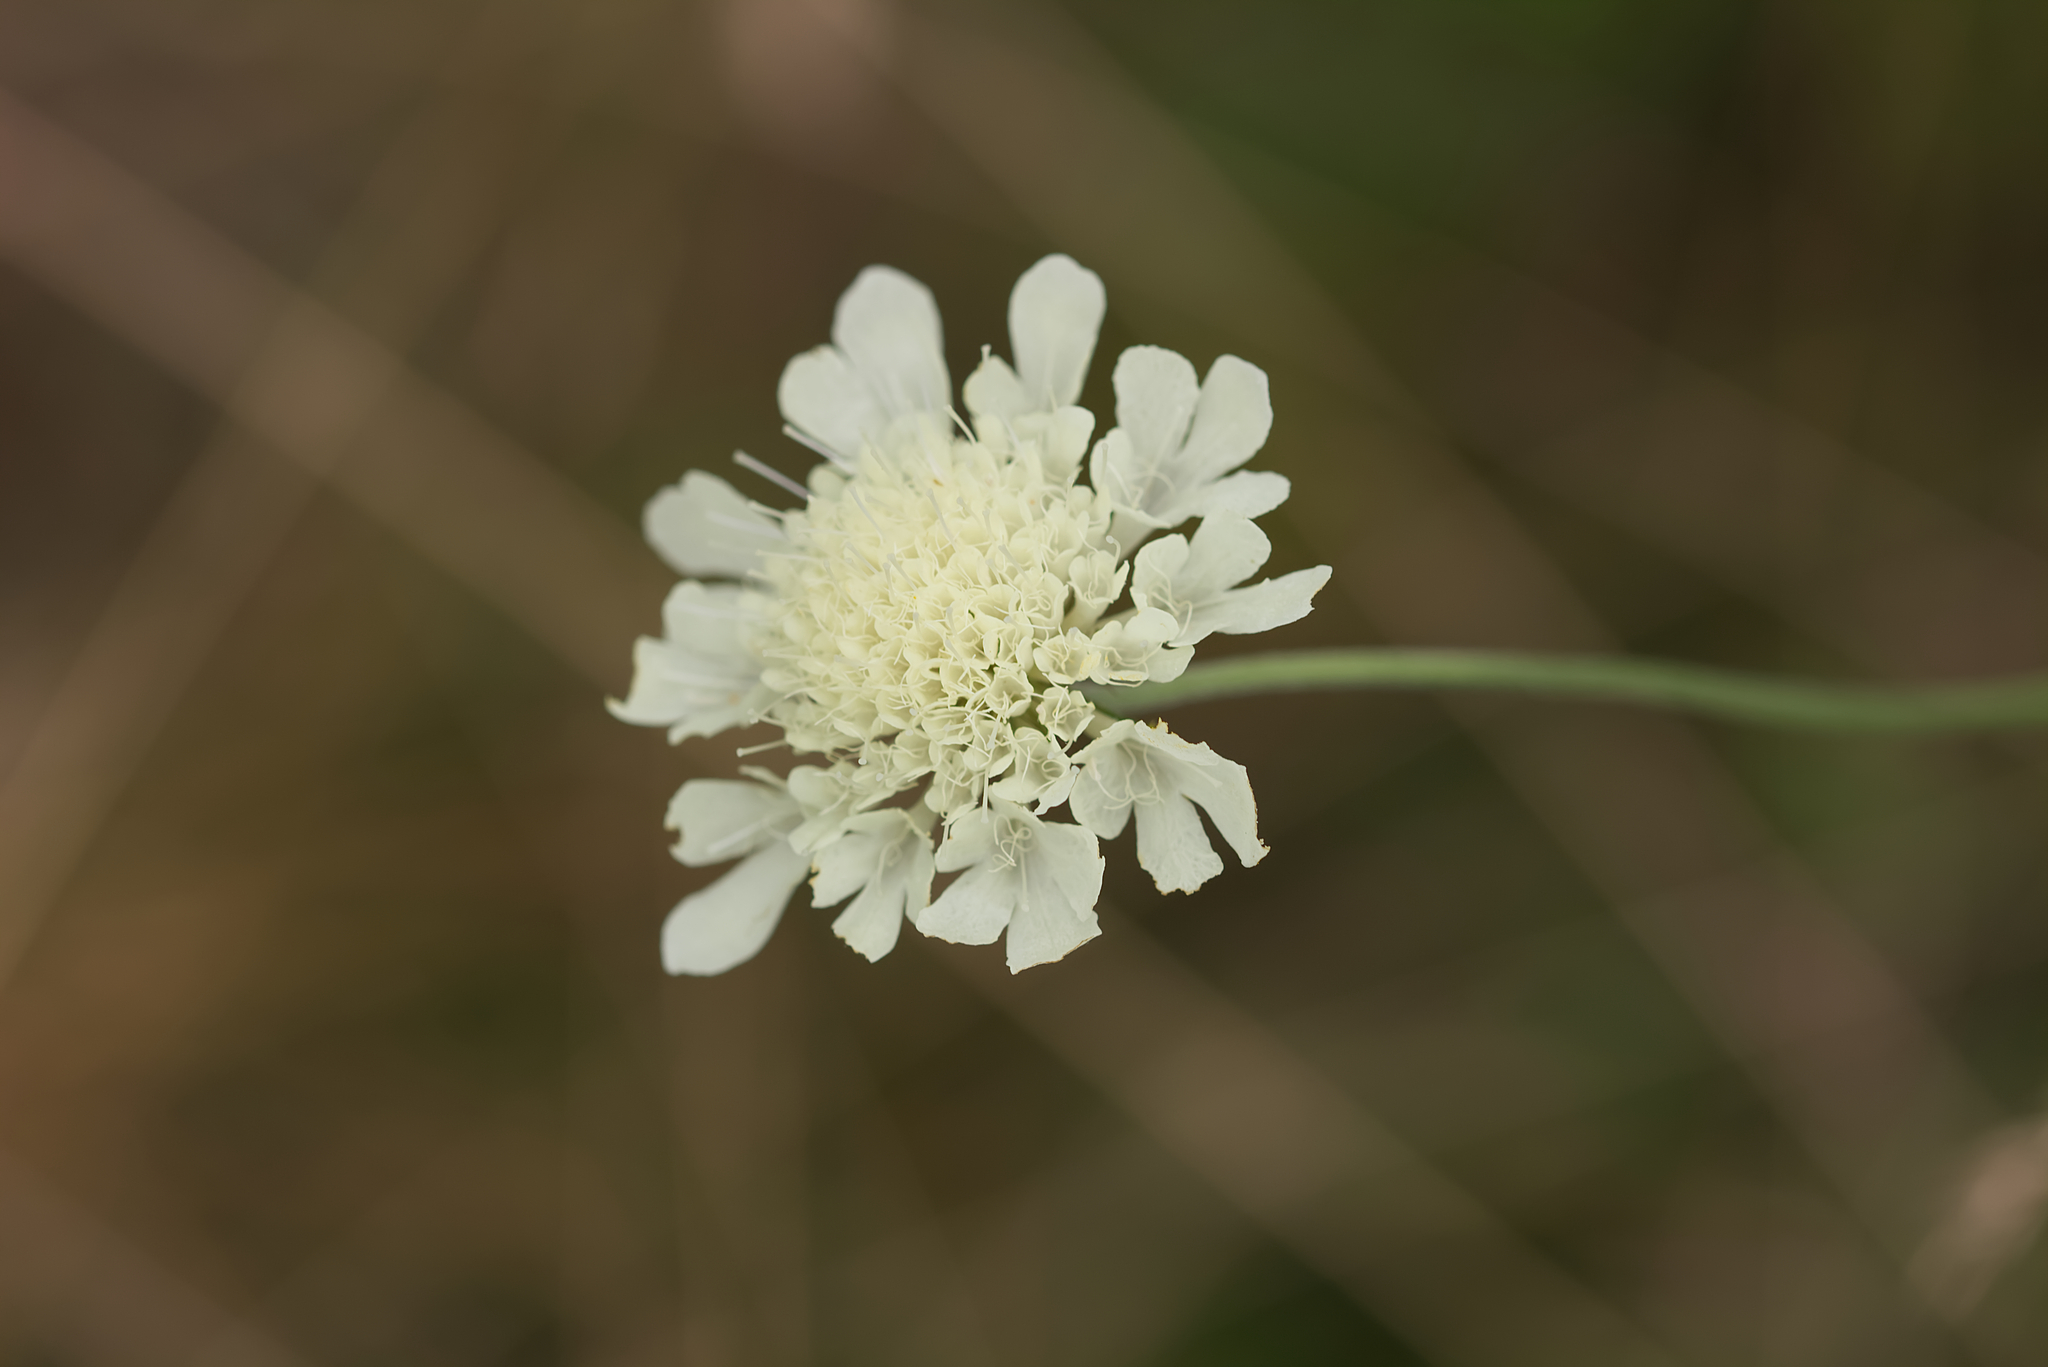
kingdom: Plantae
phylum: Tracheophyta
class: Magnoliopsida
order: Dipsacales
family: Caprifoliaceae
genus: Scabiosa
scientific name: Scabiosa ochroleuca
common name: Cream pincushions
